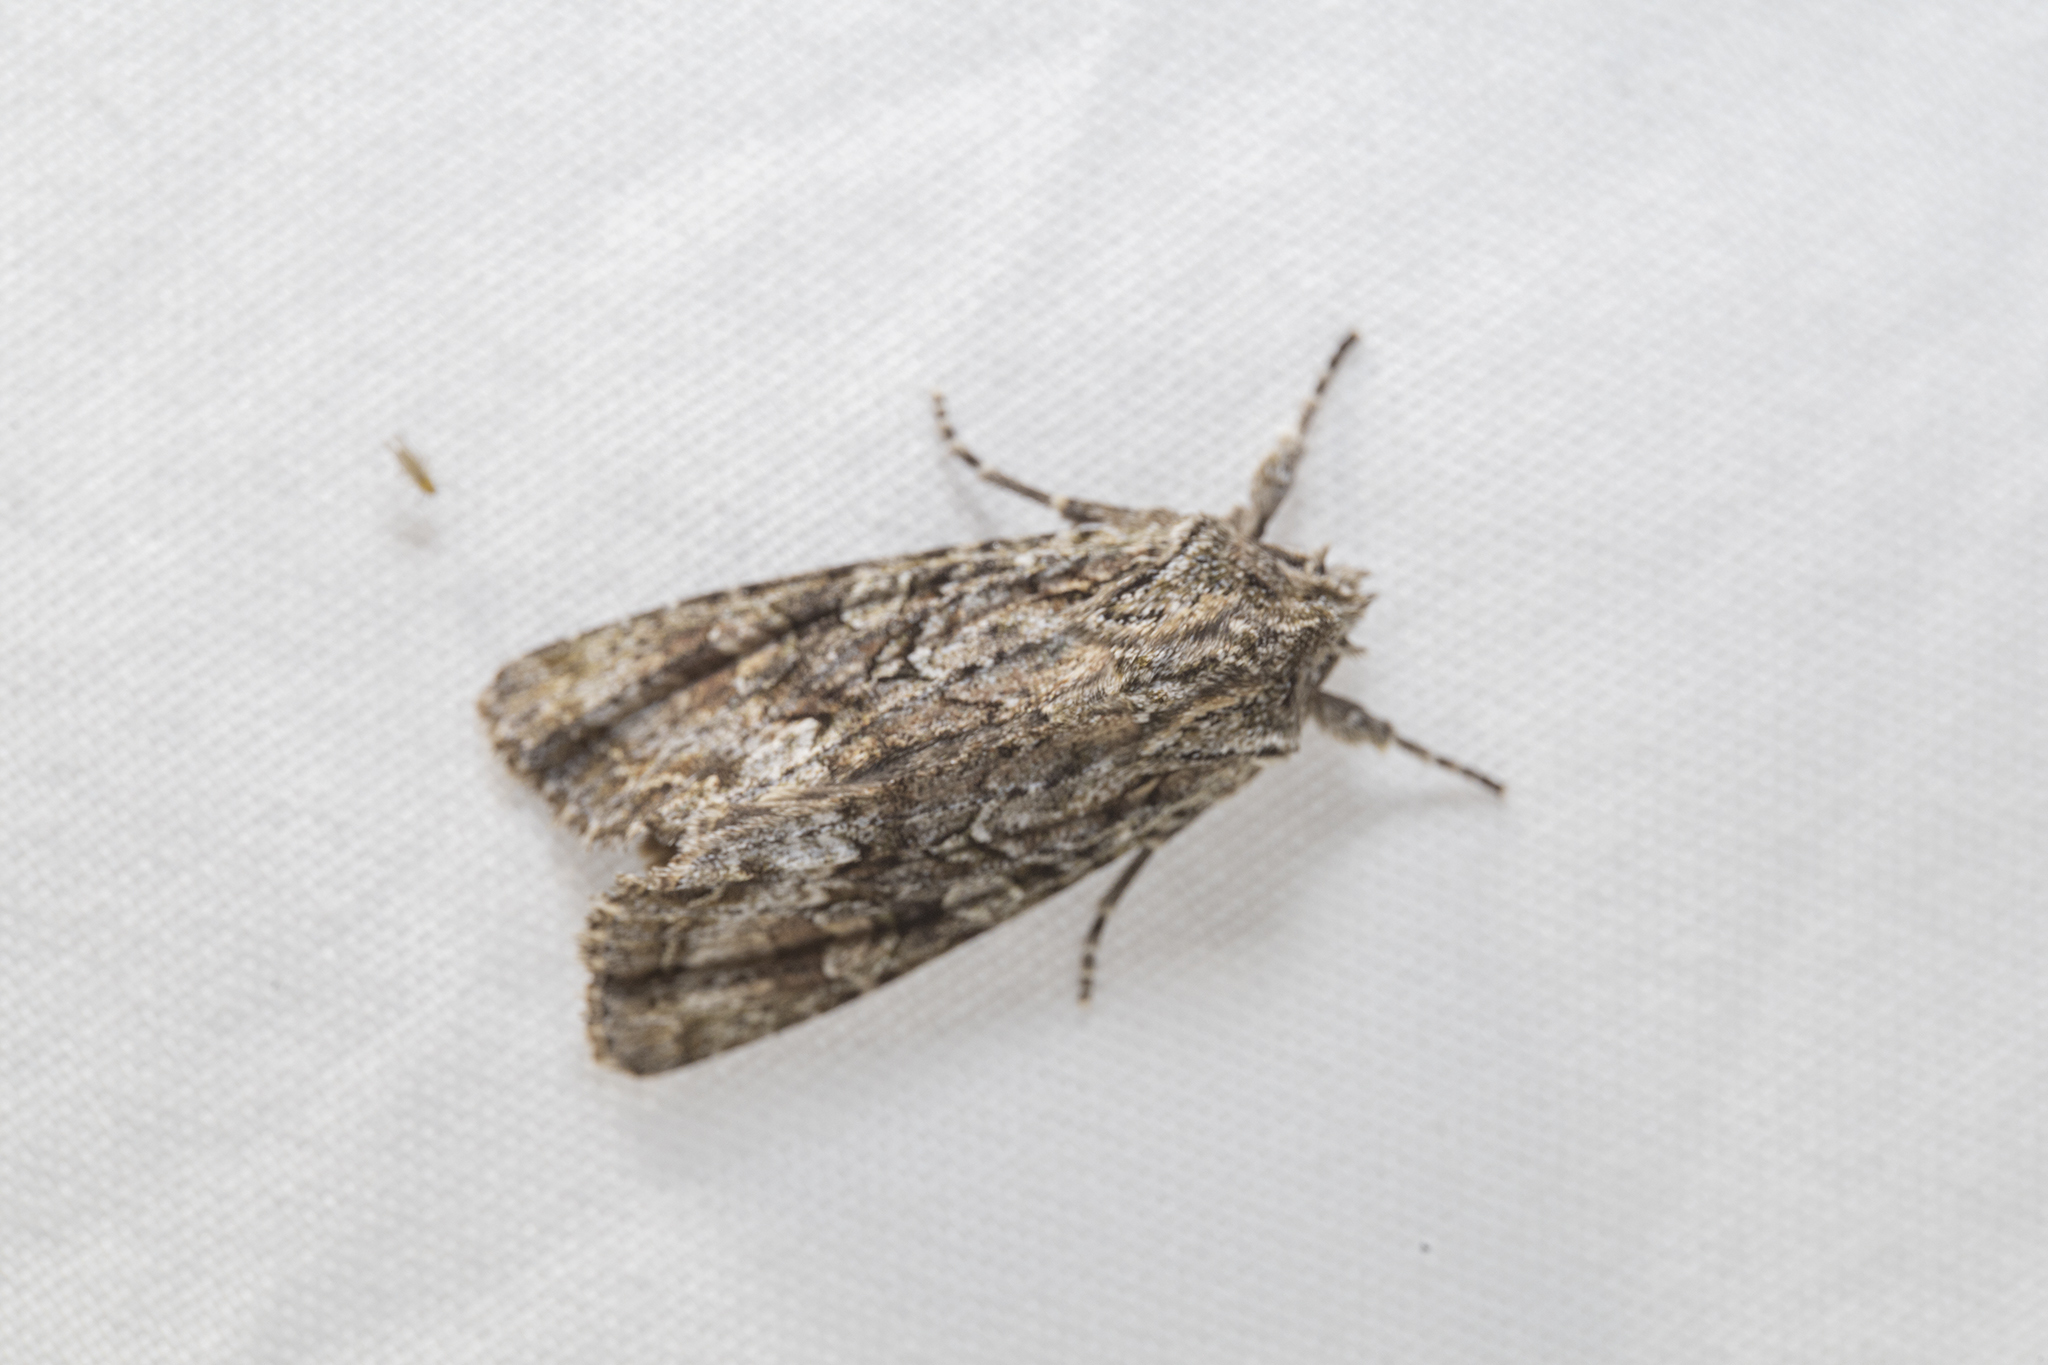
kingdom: Animalia
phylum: Arthropoda
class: Insecta
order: Lepidoptera
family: Noctuidae
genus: Ichneutica
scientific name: Ichneutica mutans
